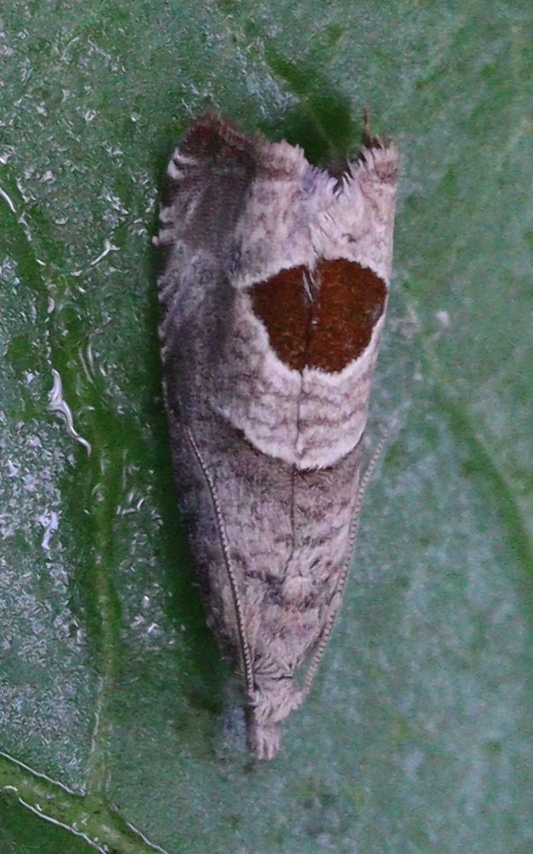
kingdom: Animalia
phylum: Arthropoda
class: Insecta
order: Lepidoptera
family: Tortricidae
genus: Notocelia
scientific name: Notocelia uddmanniana
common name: Bramble shoot moth
